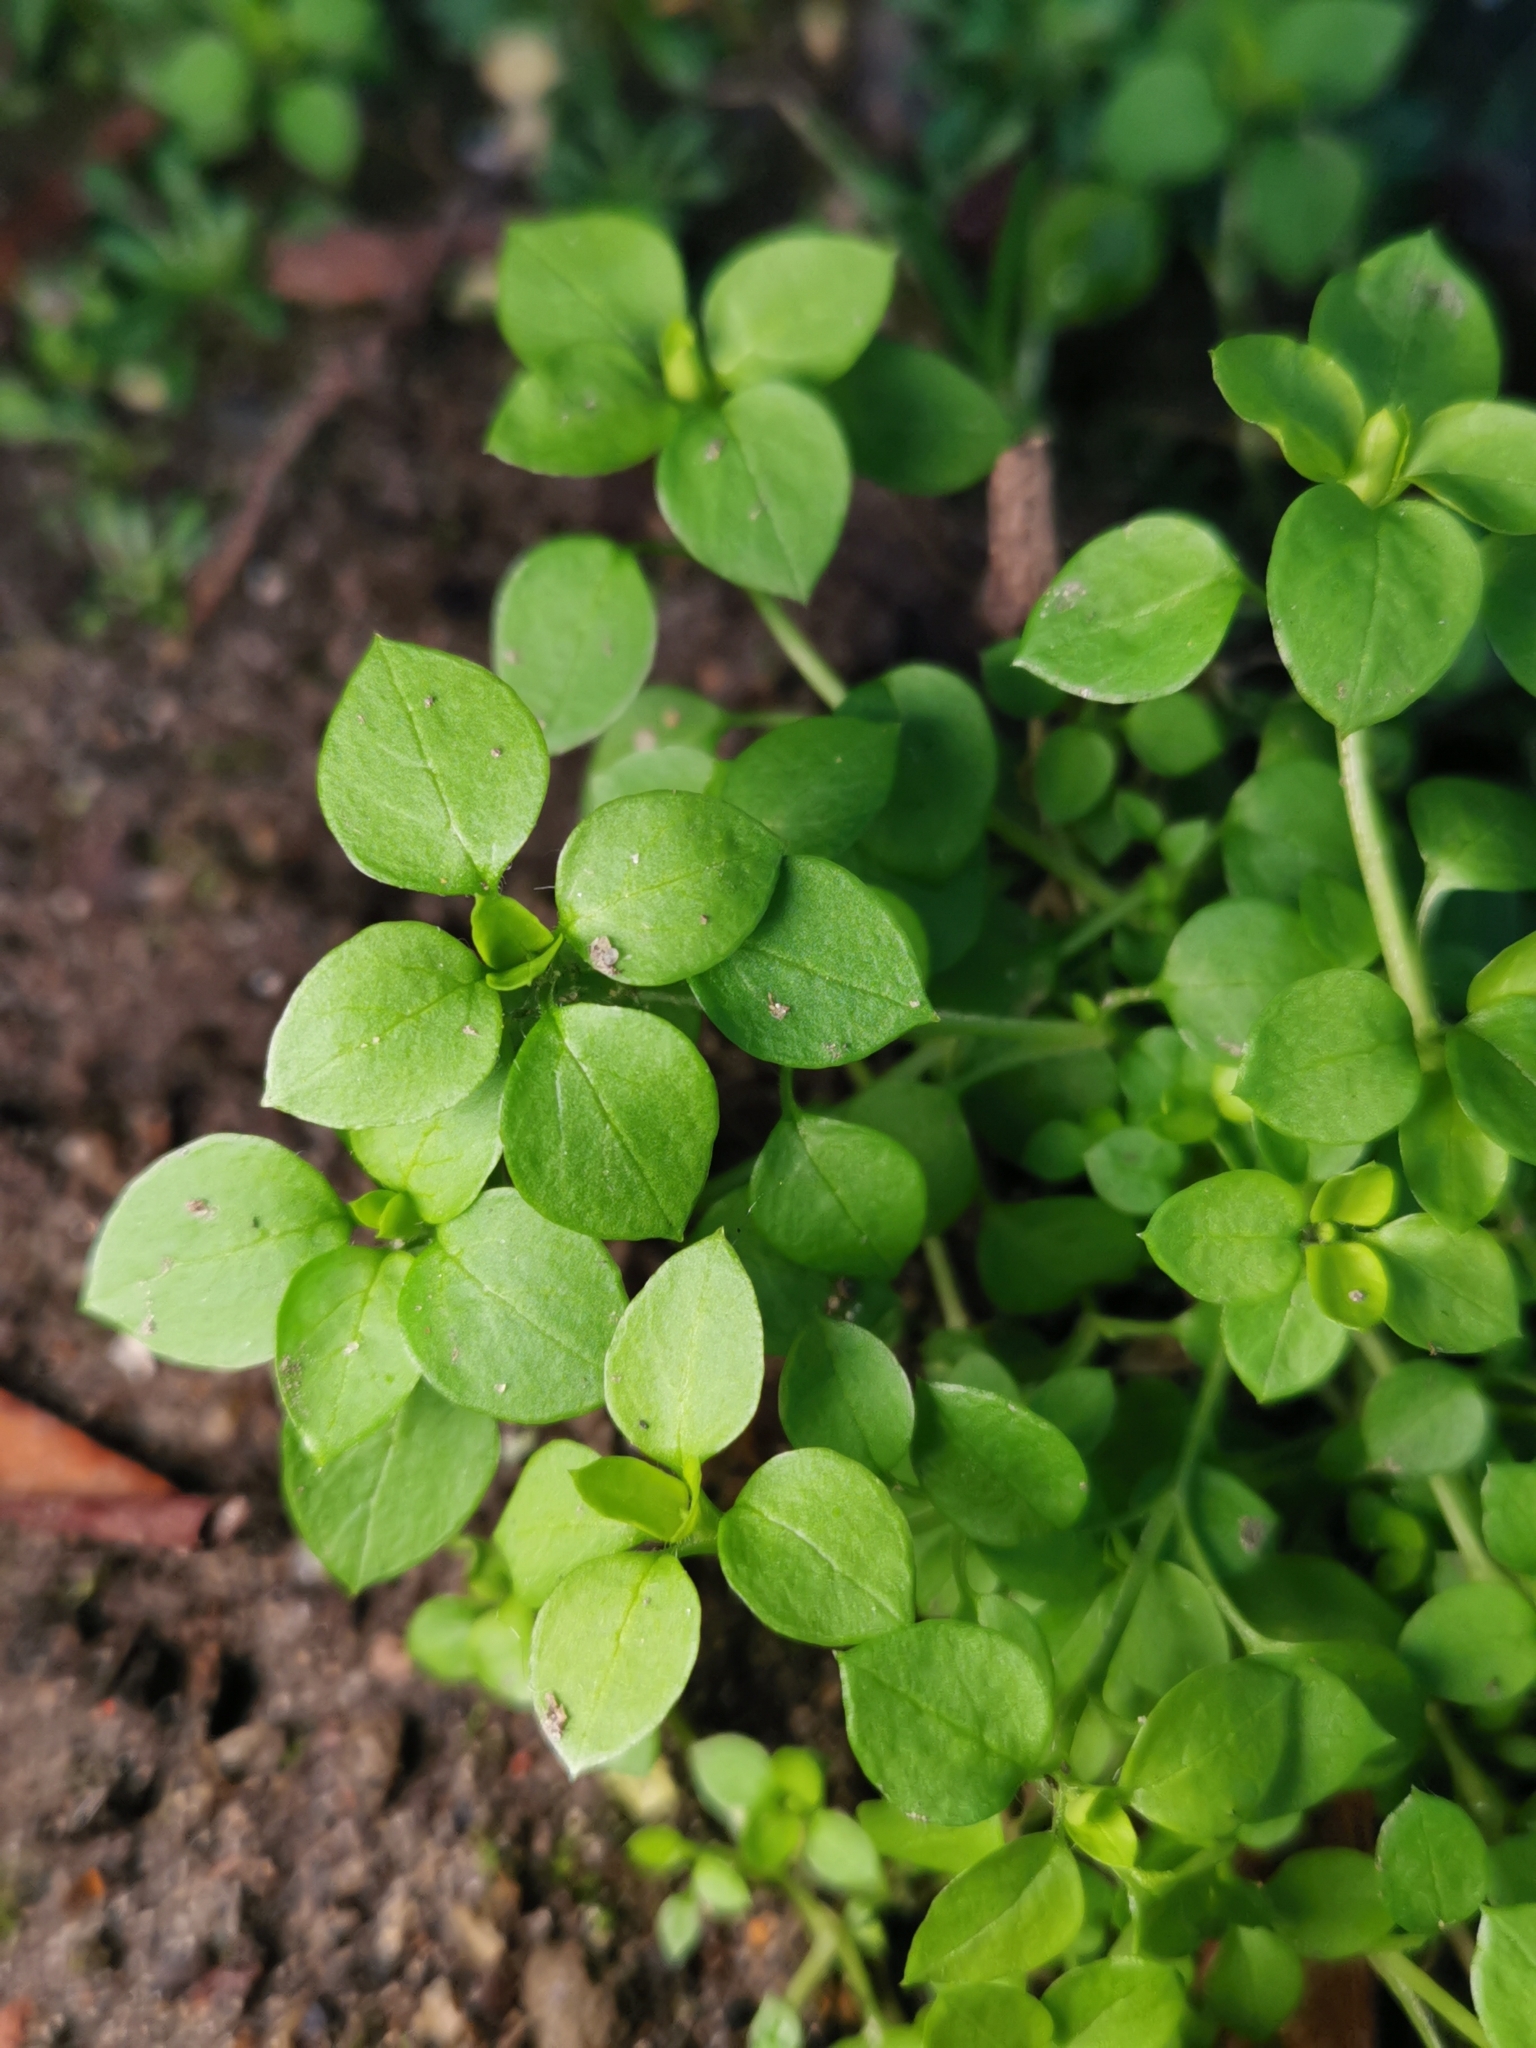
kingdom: Plantae
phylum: Tracheophyta
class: Magnoliopsida
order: Caryophyllales
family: Caryophyllaceae
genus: Stellaria
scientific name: Stellaria media
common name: Common chickweed
